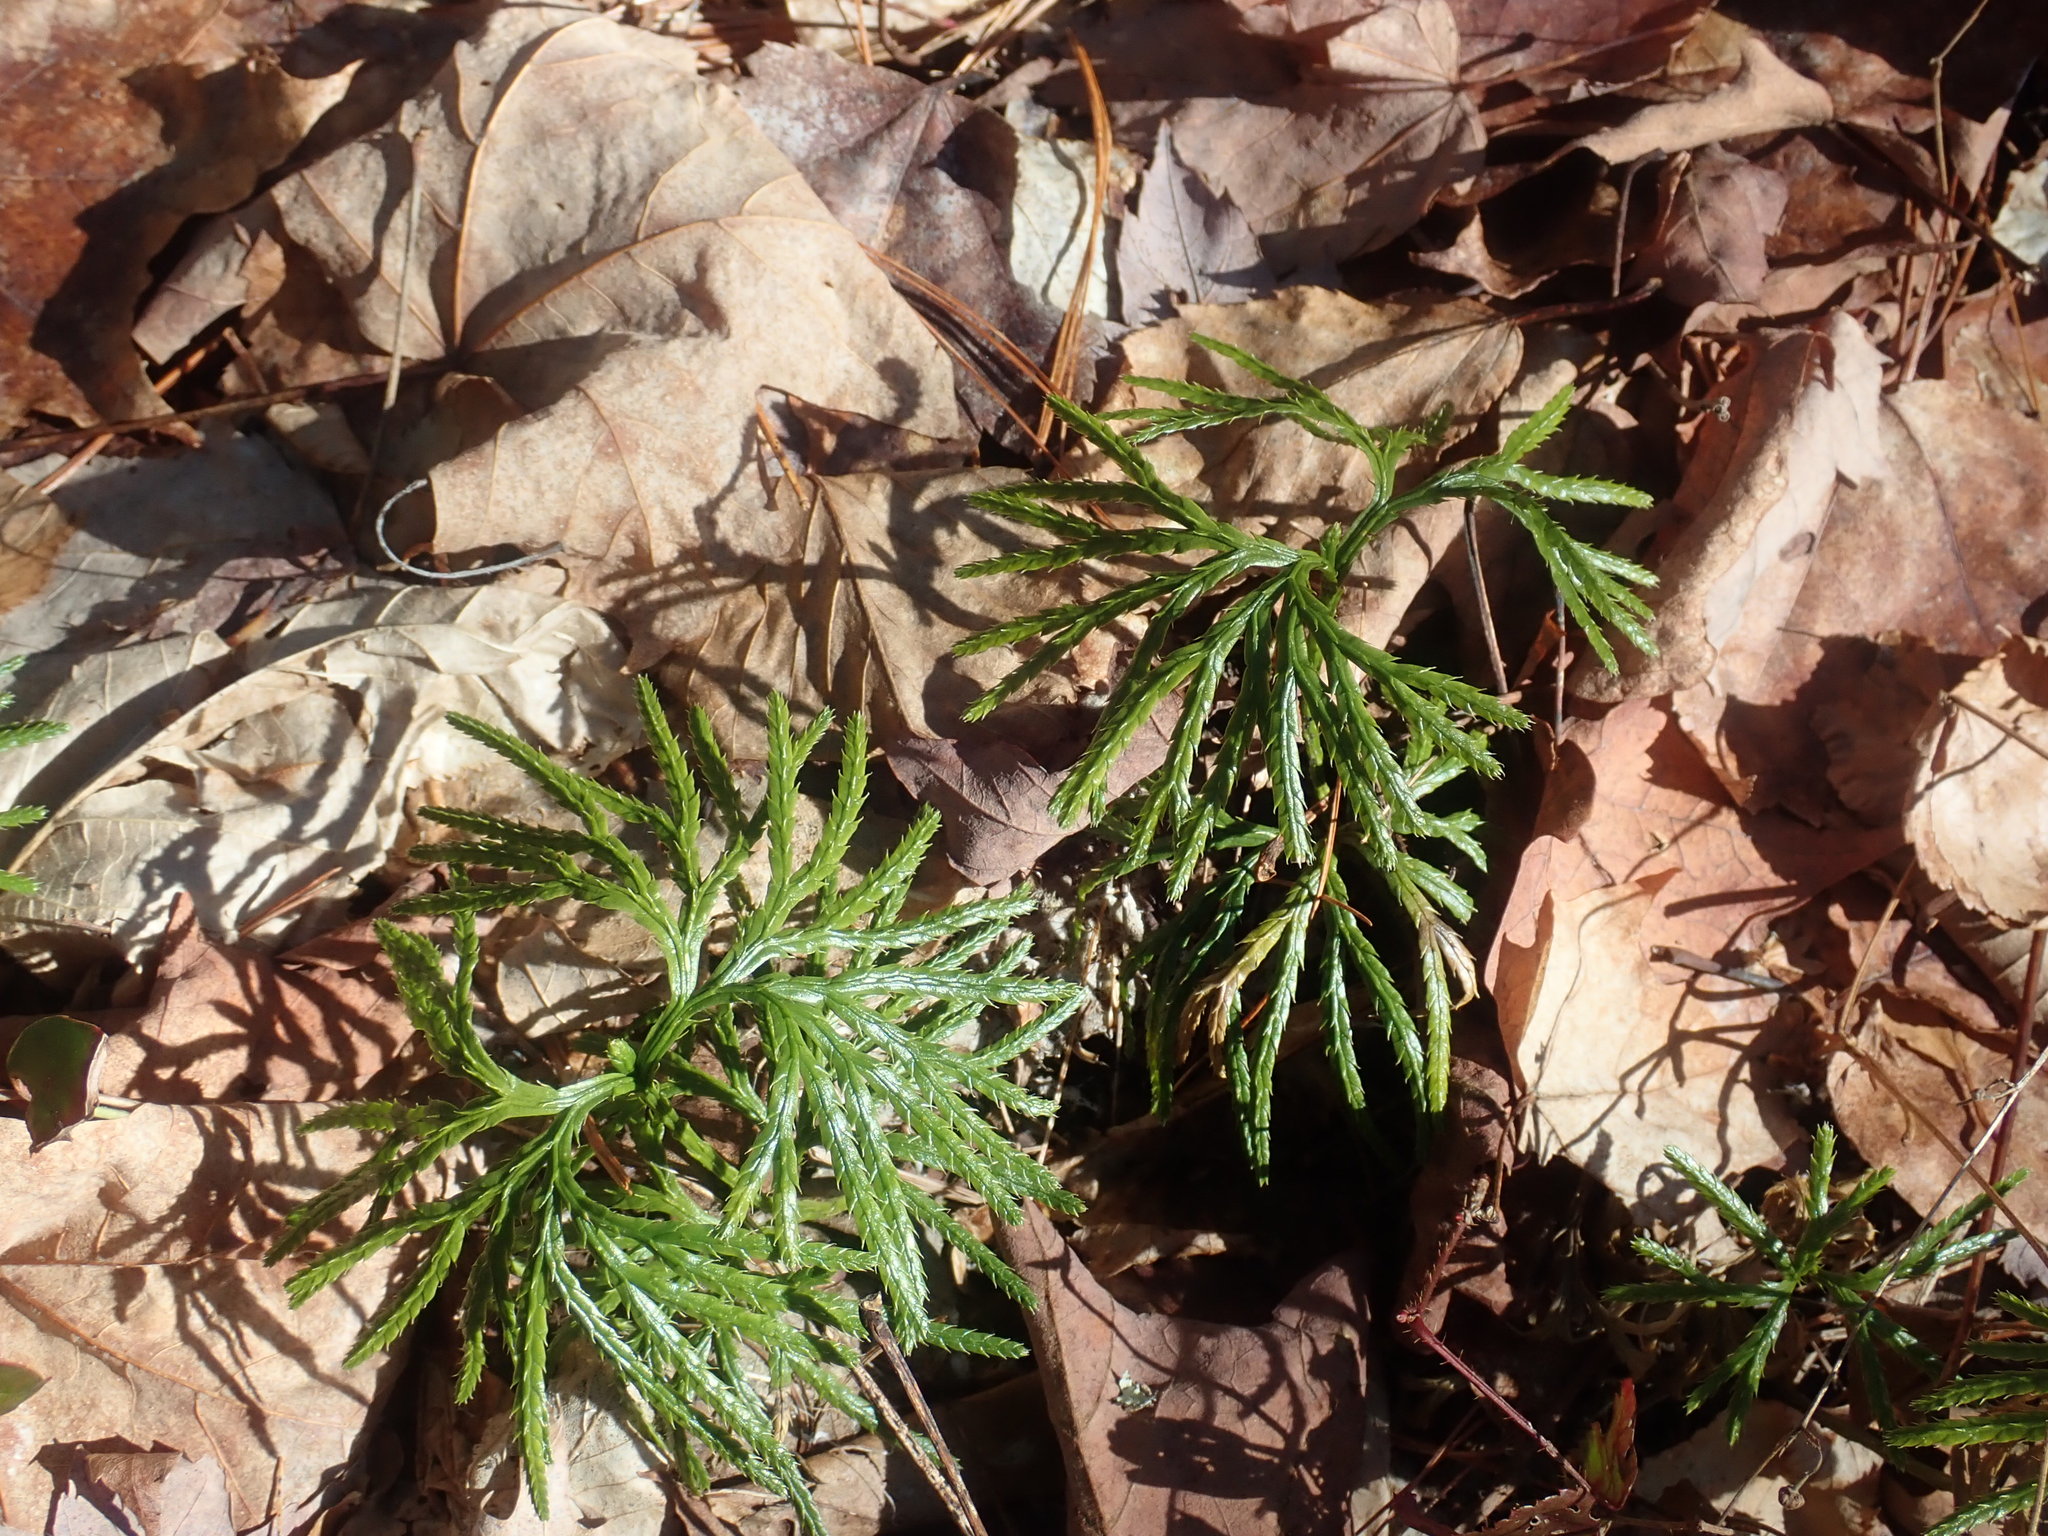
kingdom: Plantae
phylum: Tracheophyta
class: Lycopodiopsida
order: Lycopodiales
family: Lycopodiaceae
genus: Diphasiastrum
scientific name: Diphasiastrum digitatum
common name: Southern running-pine
